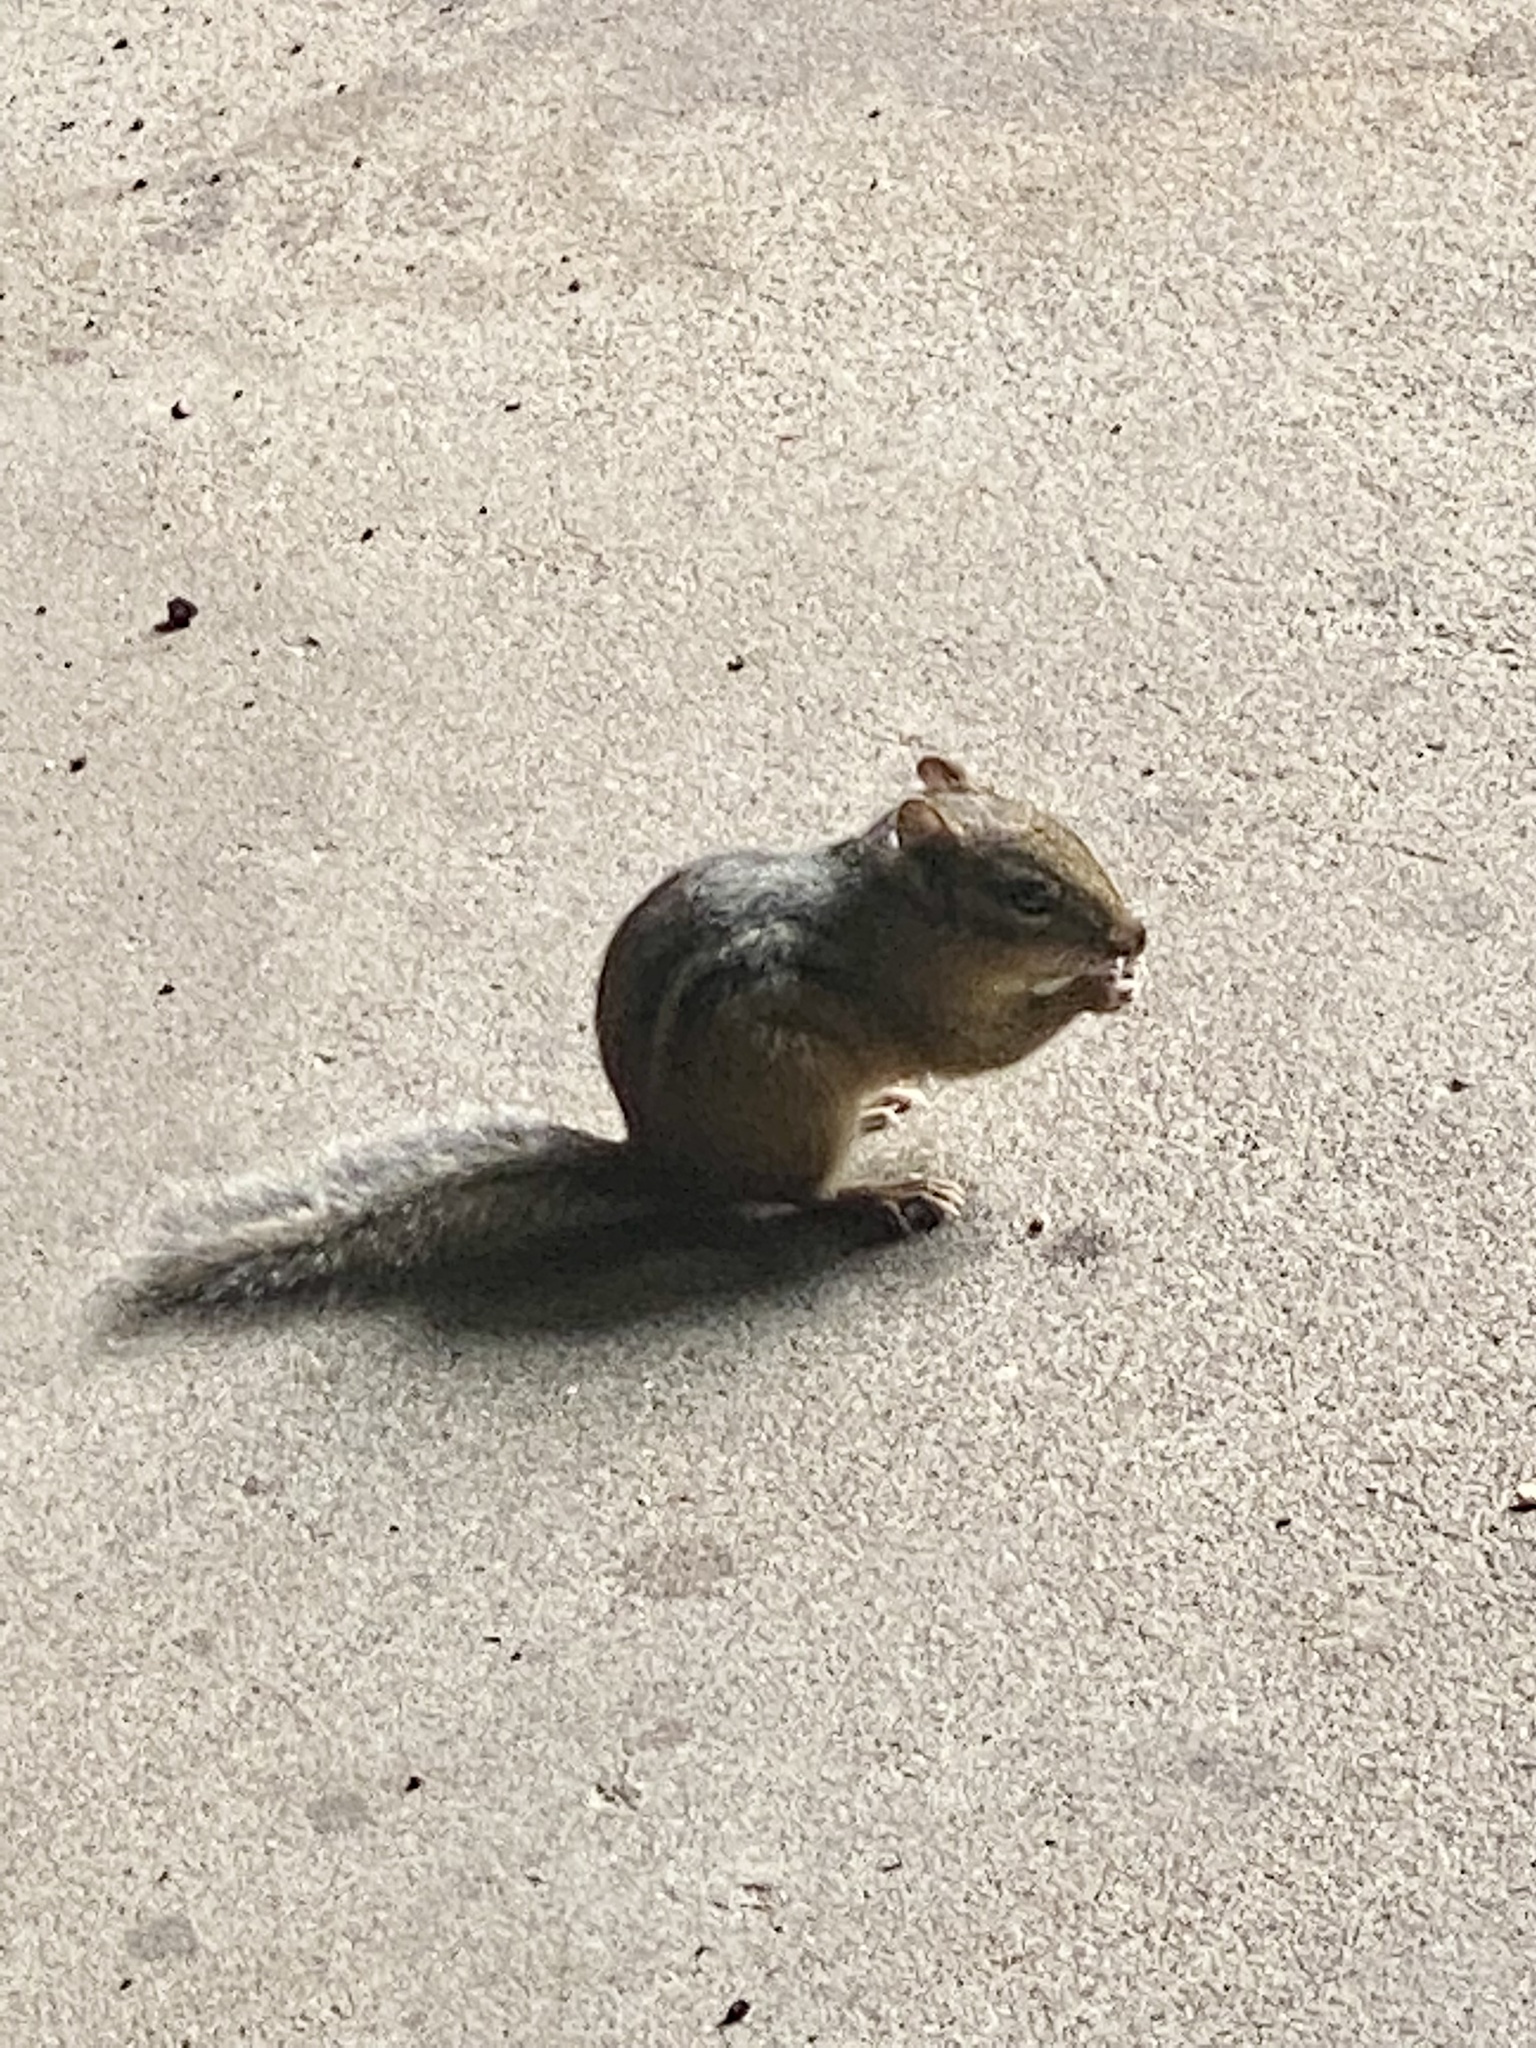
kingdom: Animalia
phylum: Chordata
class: Mammalia
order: Rodentia
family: Sciuridae
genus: Tamias
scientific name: Tamias striatus
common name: Eastern chipmunk
